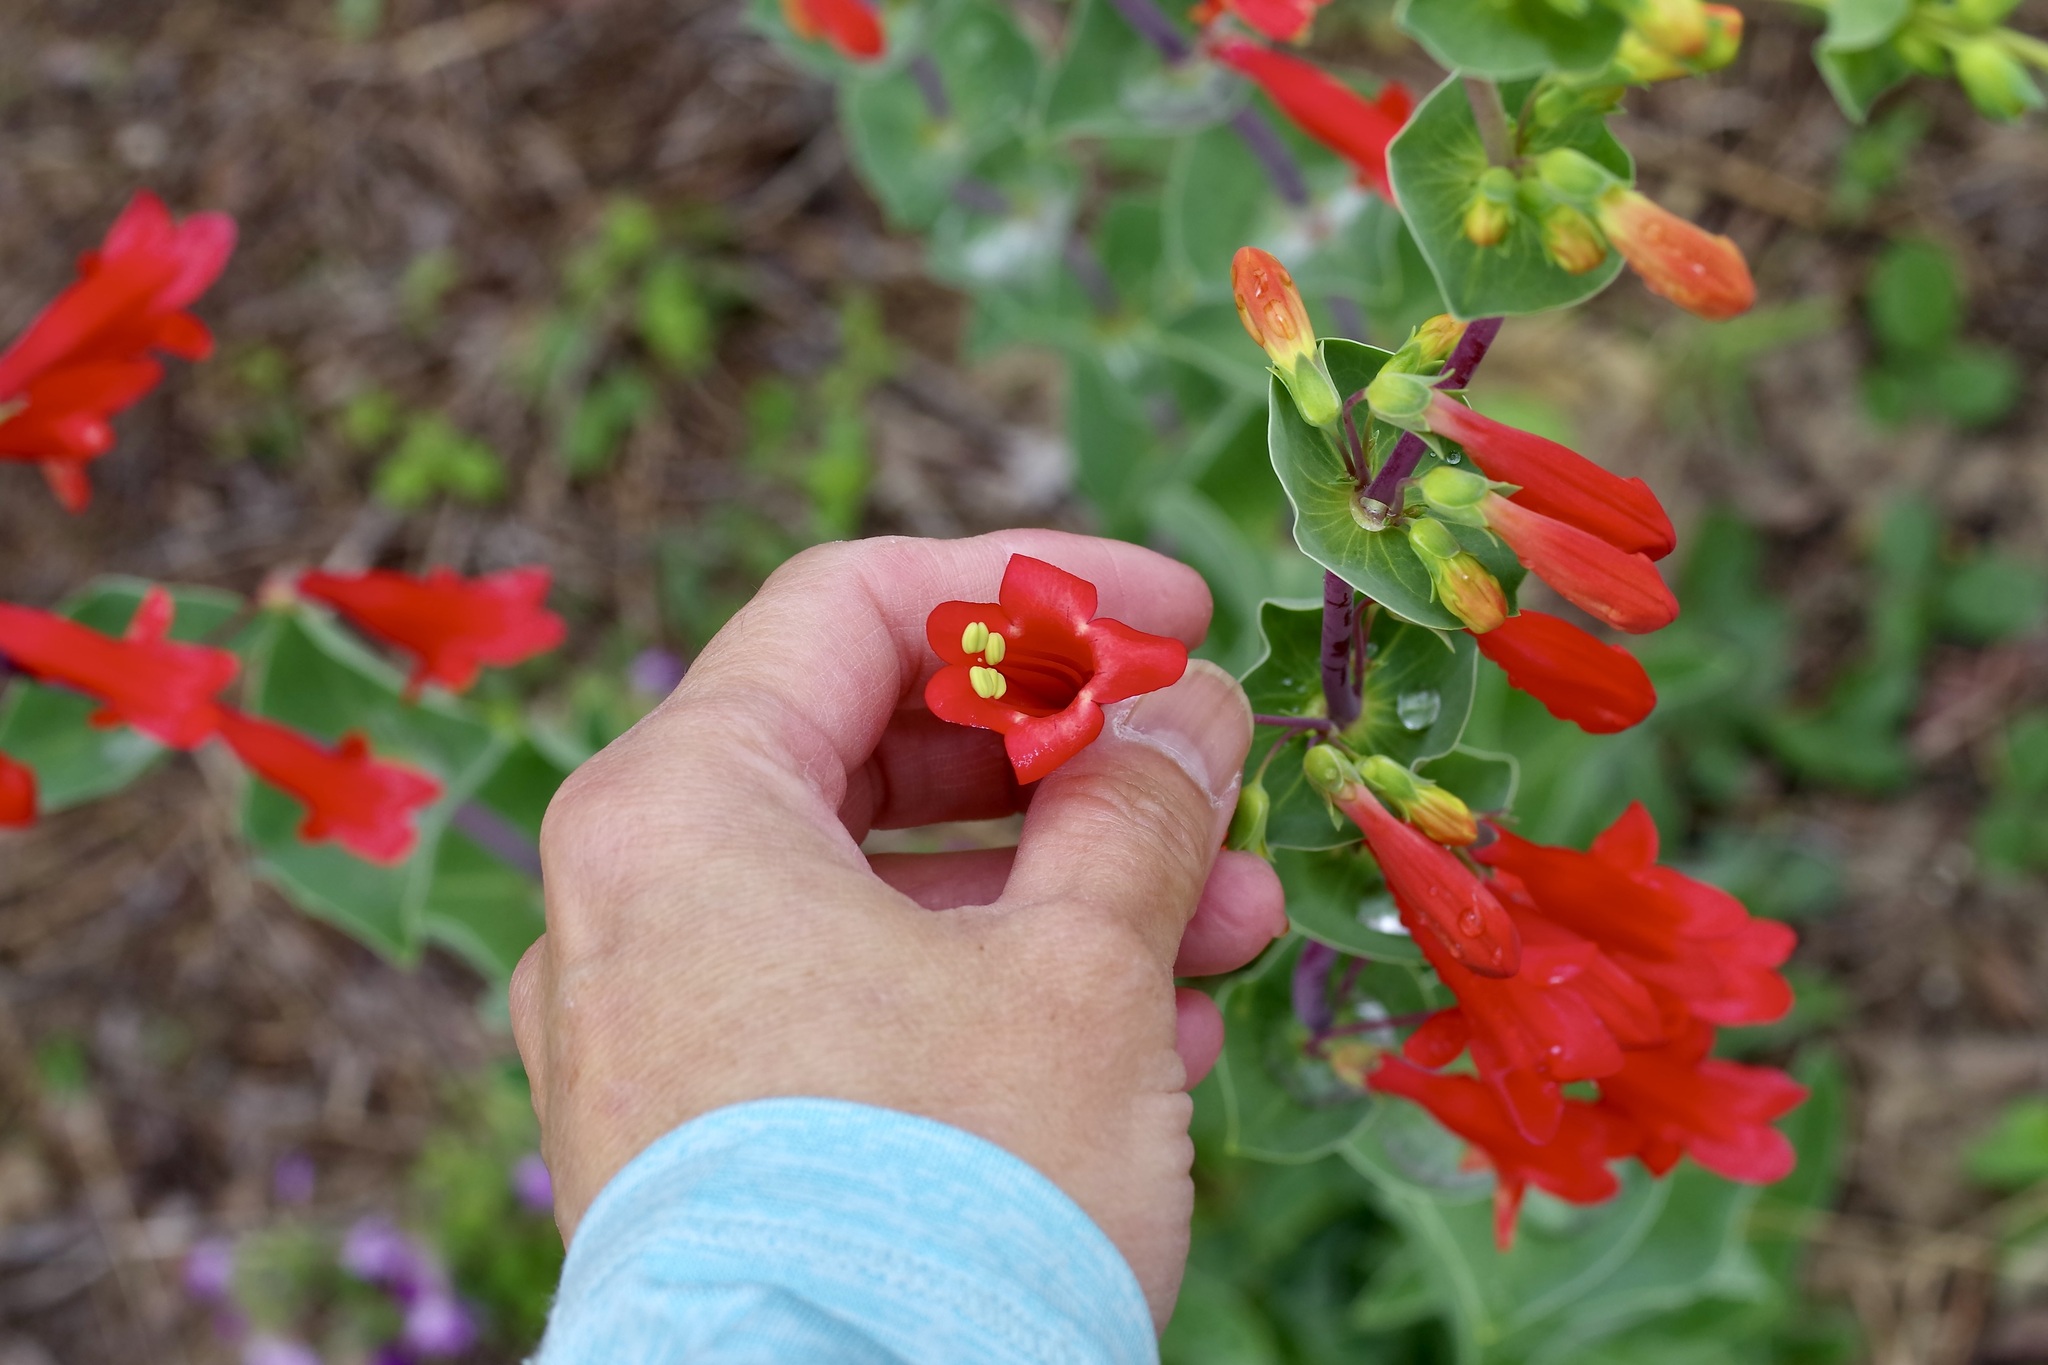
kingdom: Plantae
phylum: Tracheophyta
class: Magnoliopsida
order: Lamiales
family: Plantaginaceae
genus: Penstemon
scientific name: Penstemon murrayanus
